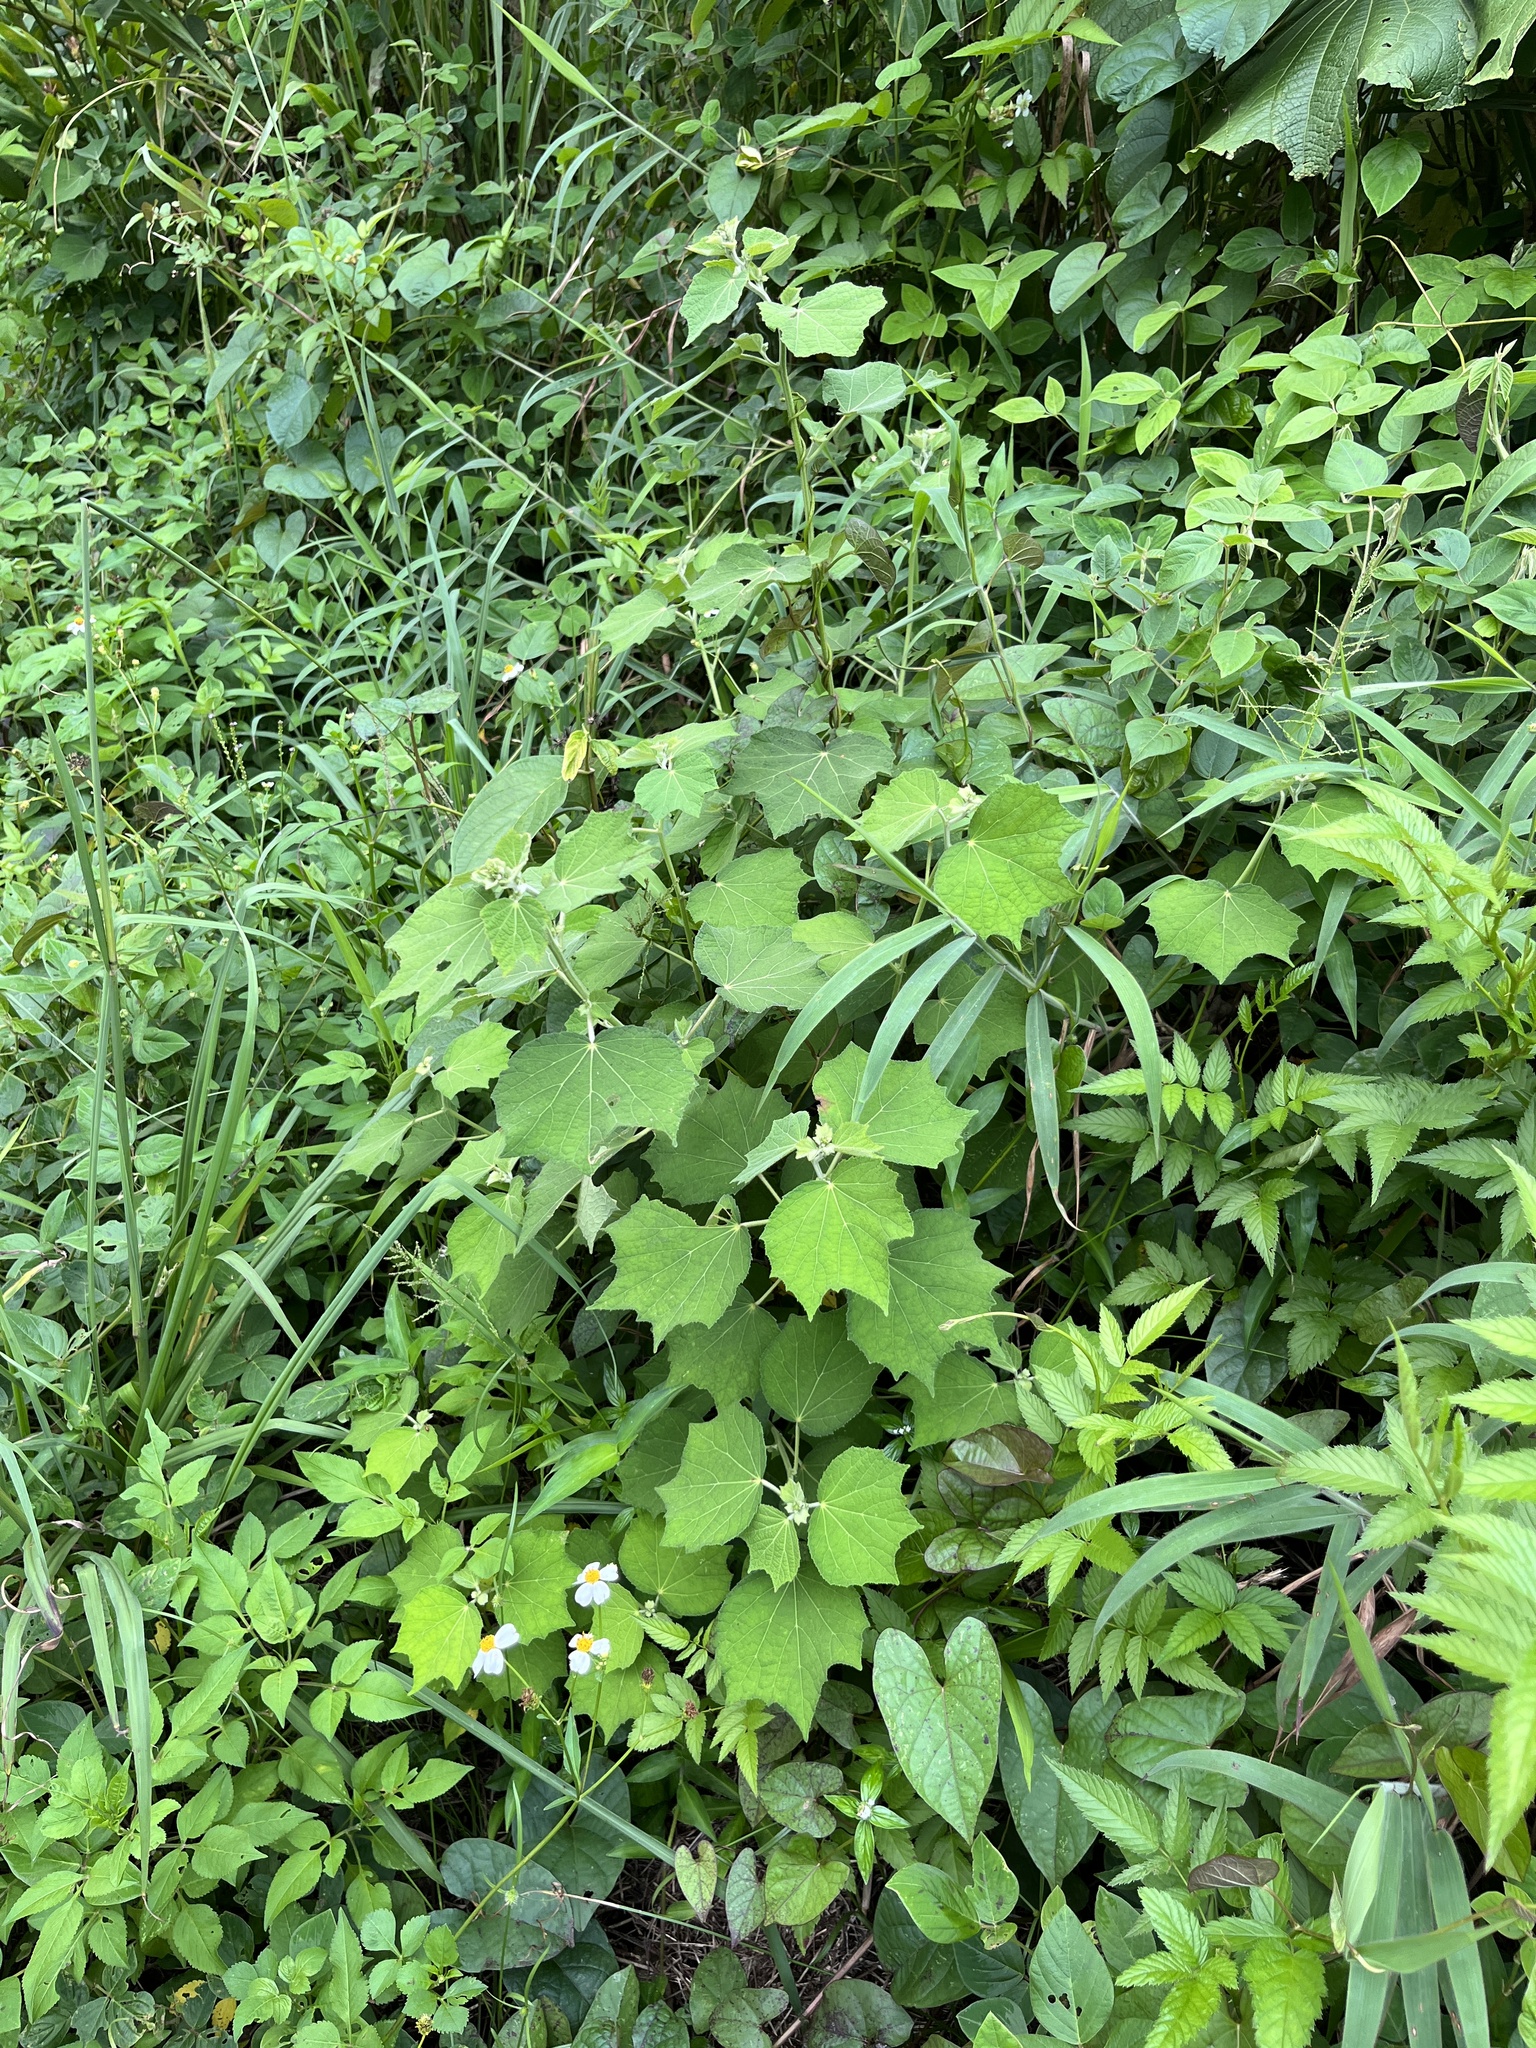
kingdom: Plantae
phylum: Tracheophyta
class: Magnoliopsida
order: Malvales
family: Malvaceae
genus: Urena
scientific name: Urena lobata
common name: Caesarweed
